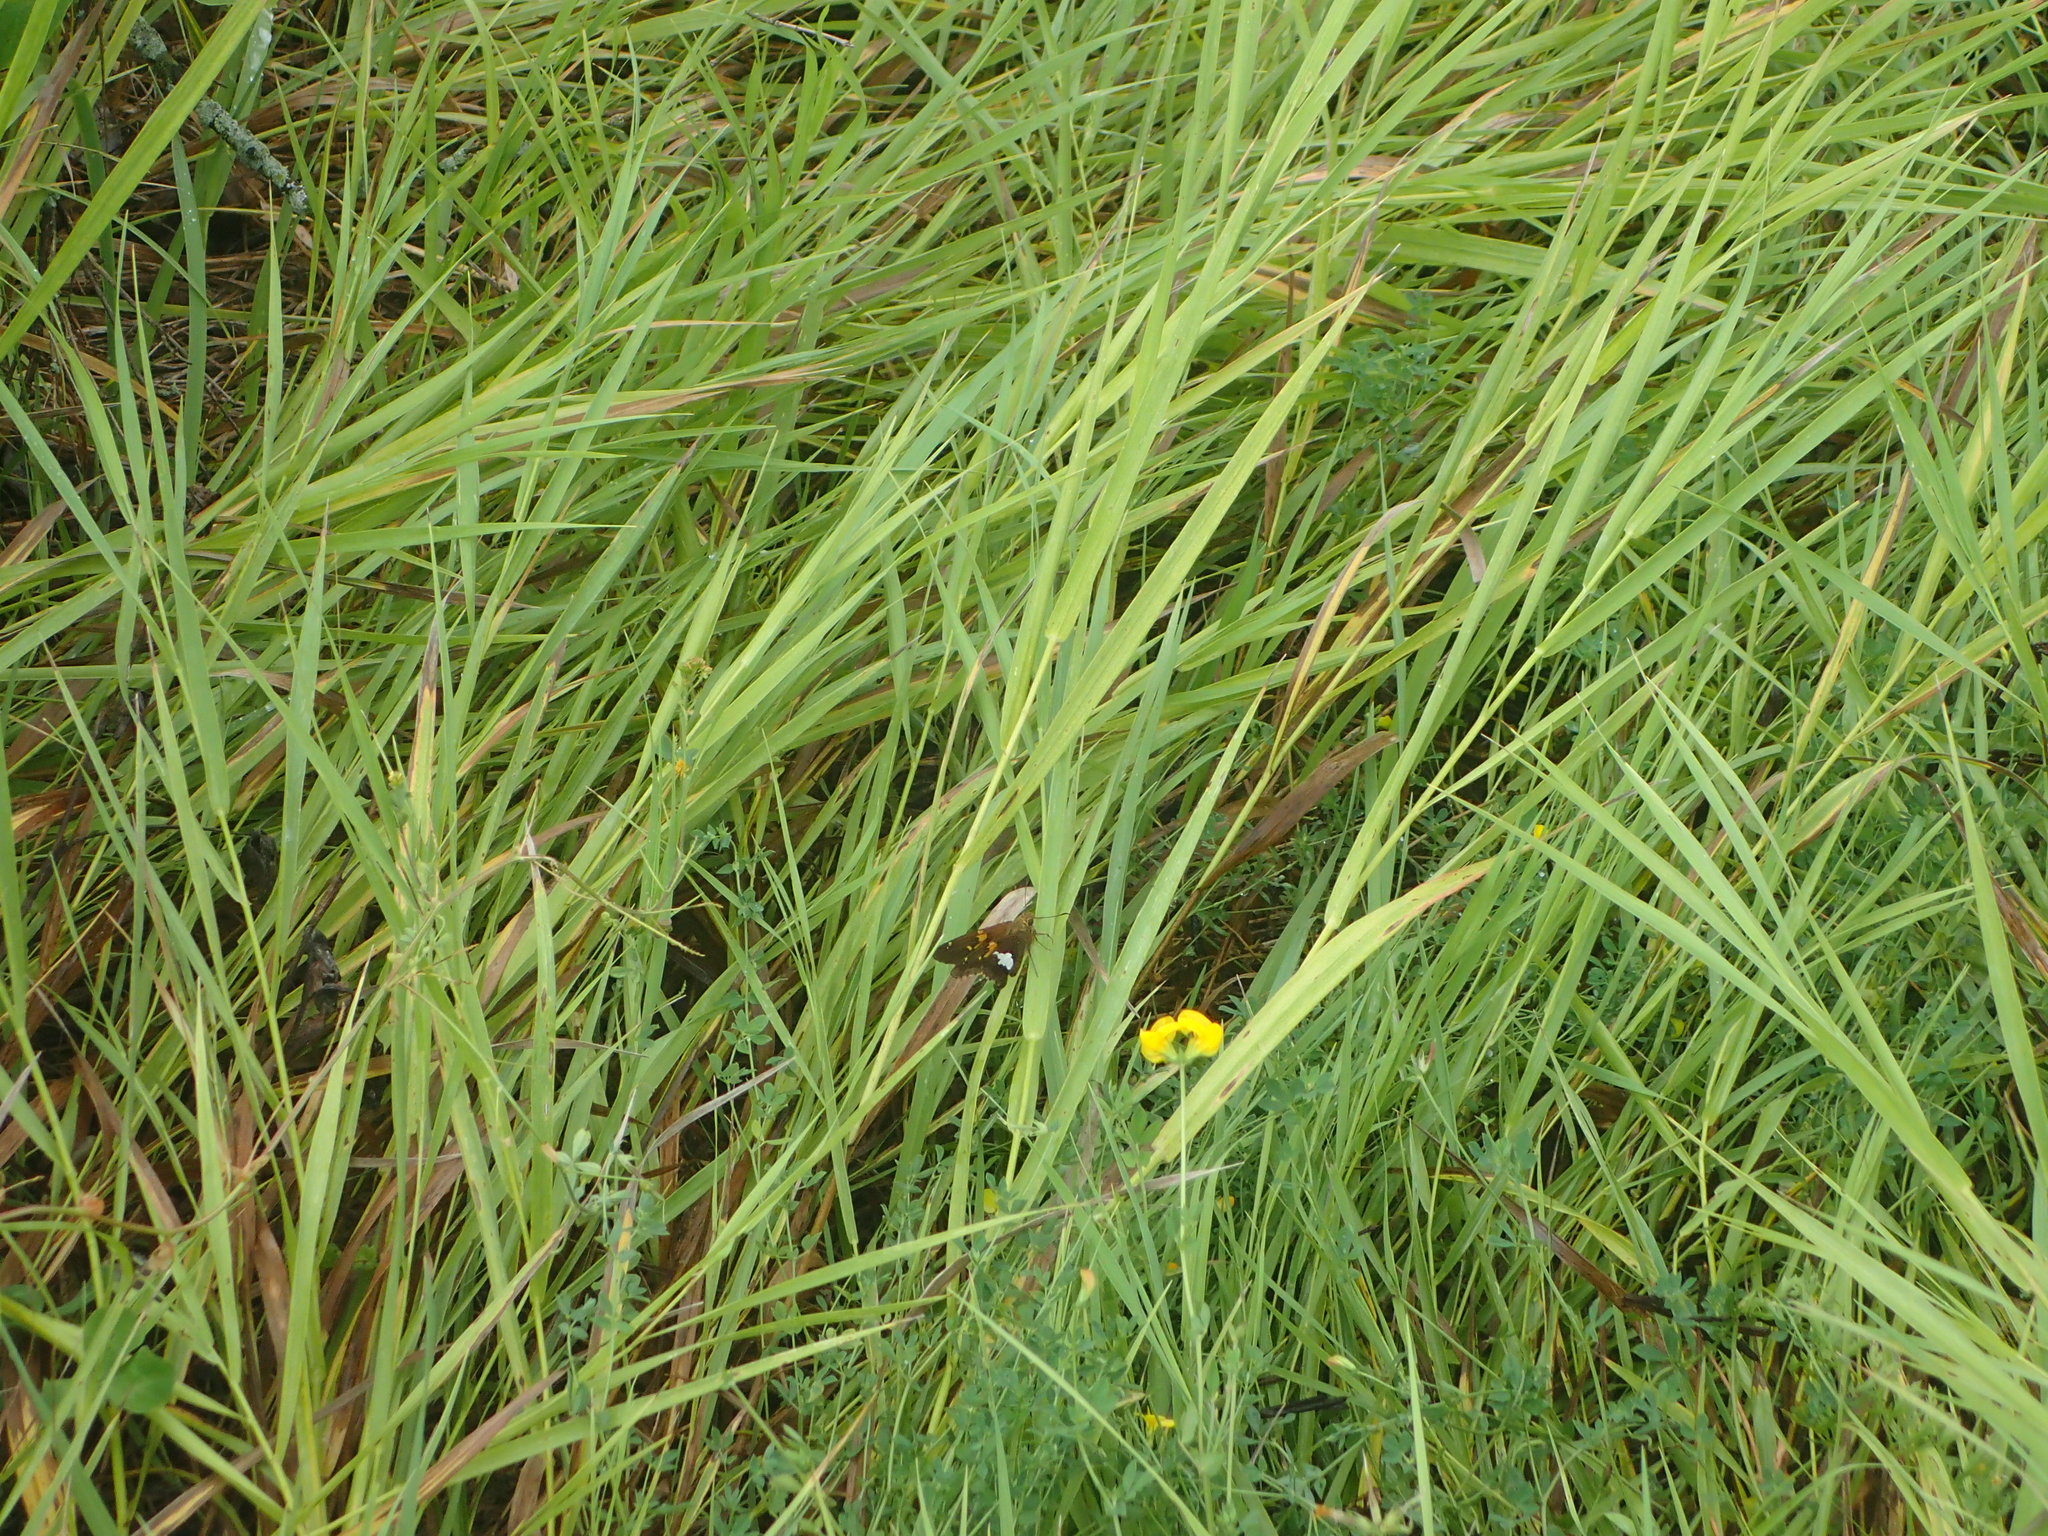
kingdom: Animalia
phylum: Arthropoda
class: Insecta
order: Lepidoptera
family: Hesperiidae
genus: Epargyreus
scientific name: Epargyreus clarus
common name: Silver-spotted skipper
